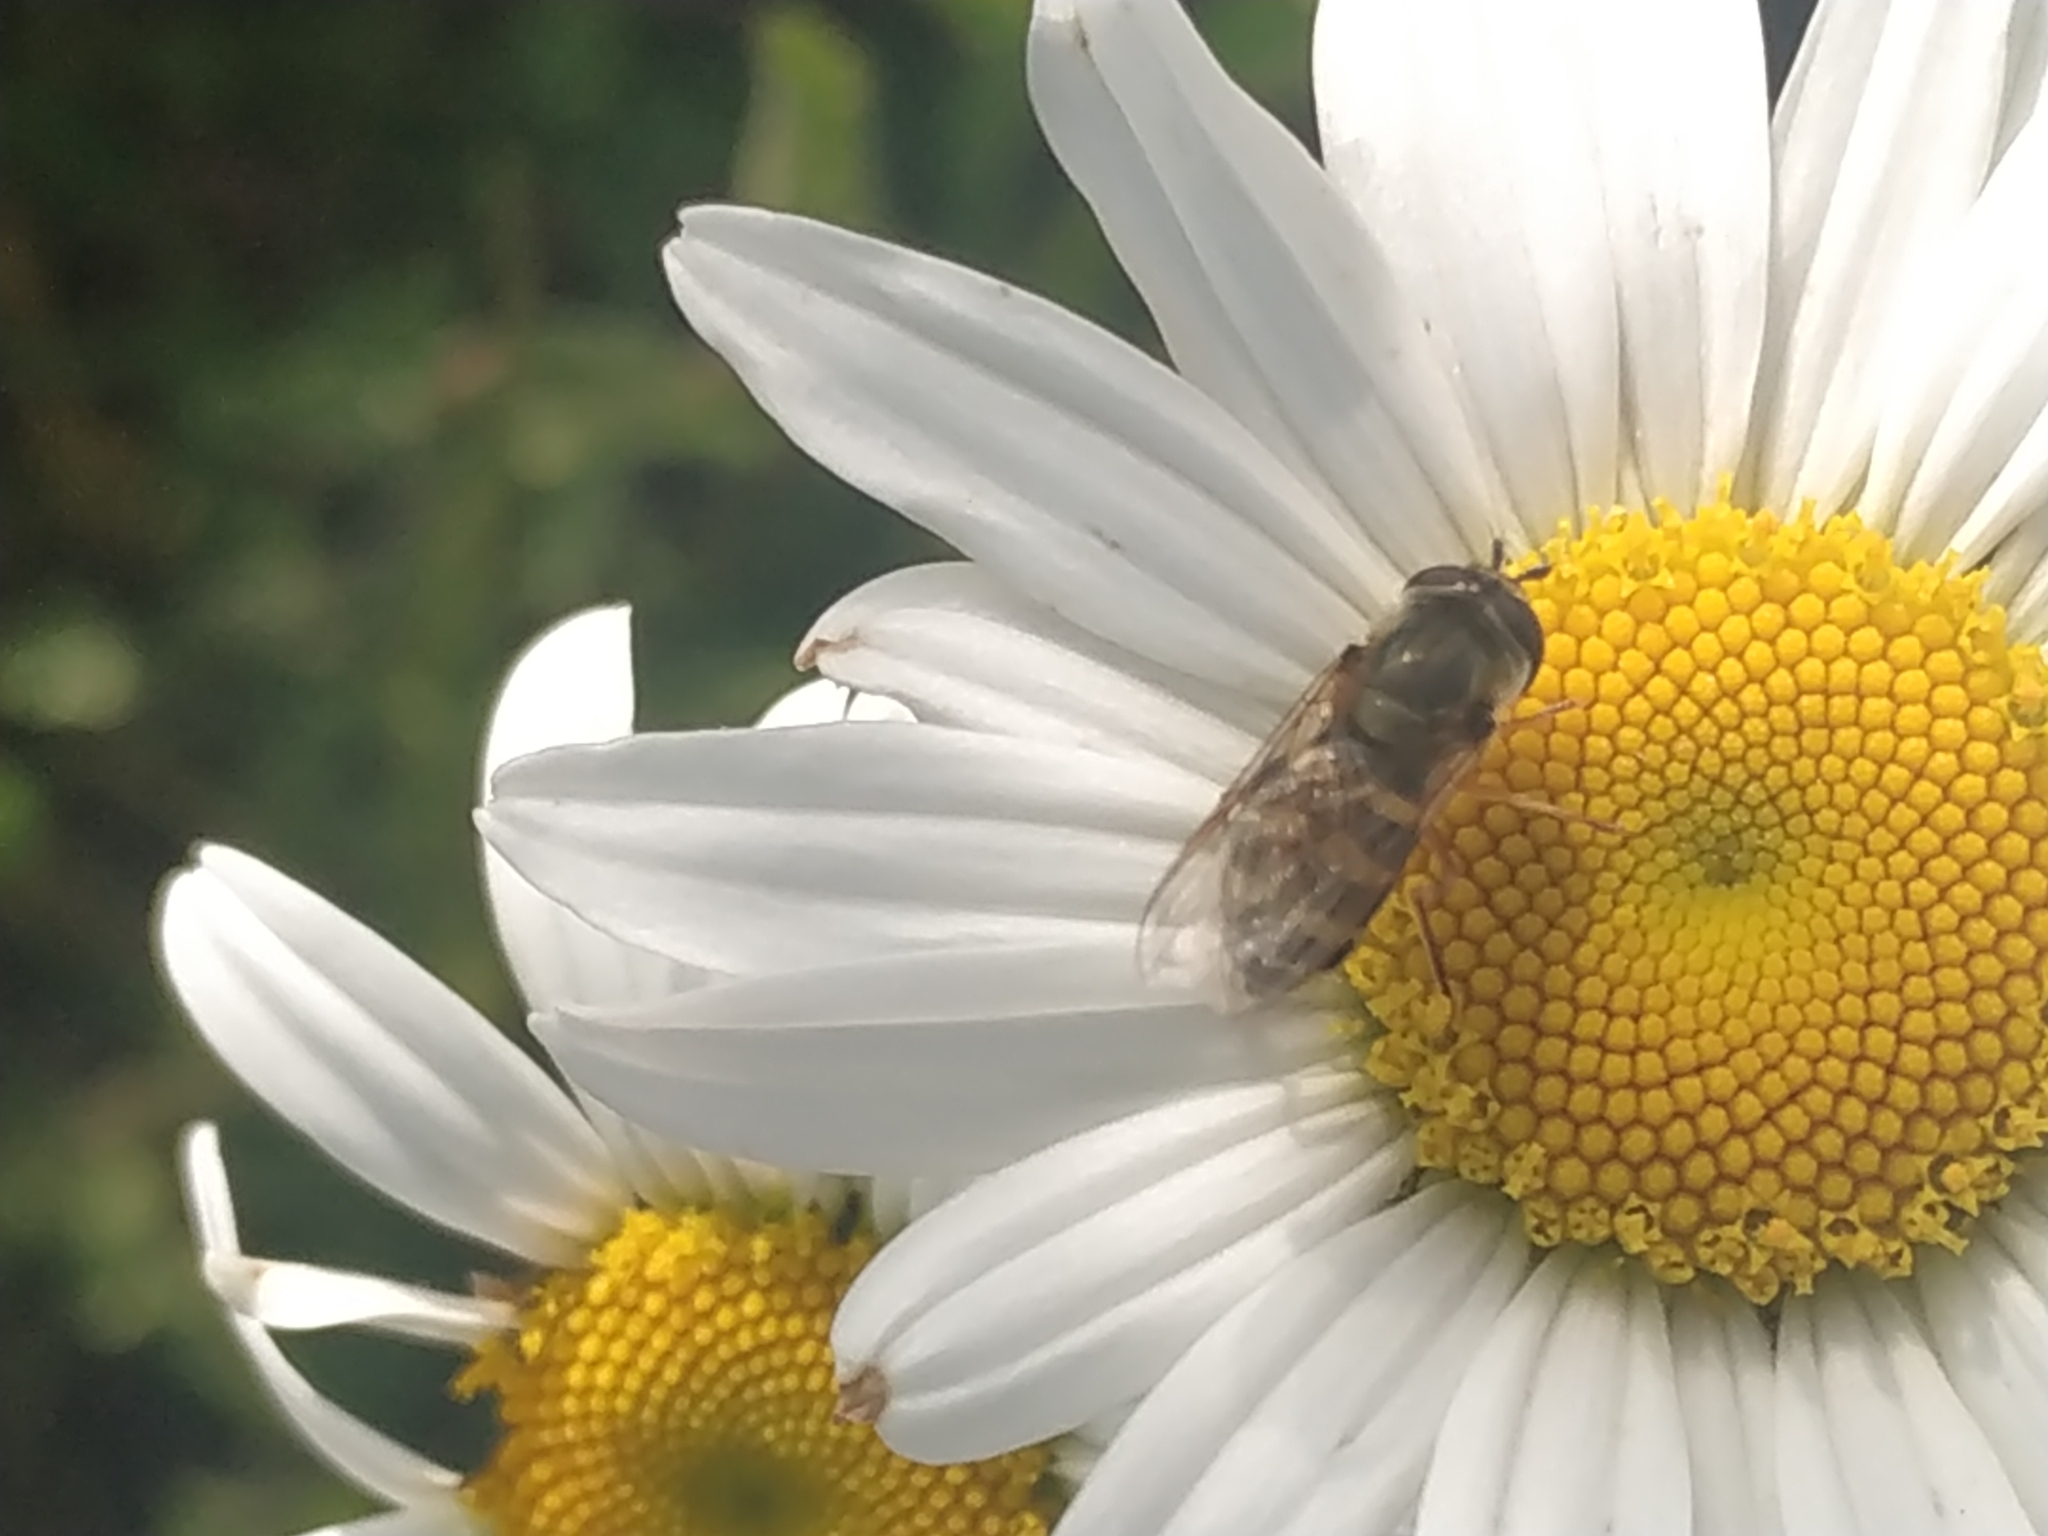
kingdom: Animalia
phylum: Arthropoda
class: Insecta
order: Diptera
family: Syrphidae
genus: Eupeodes
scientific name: Eupeodes corollae
